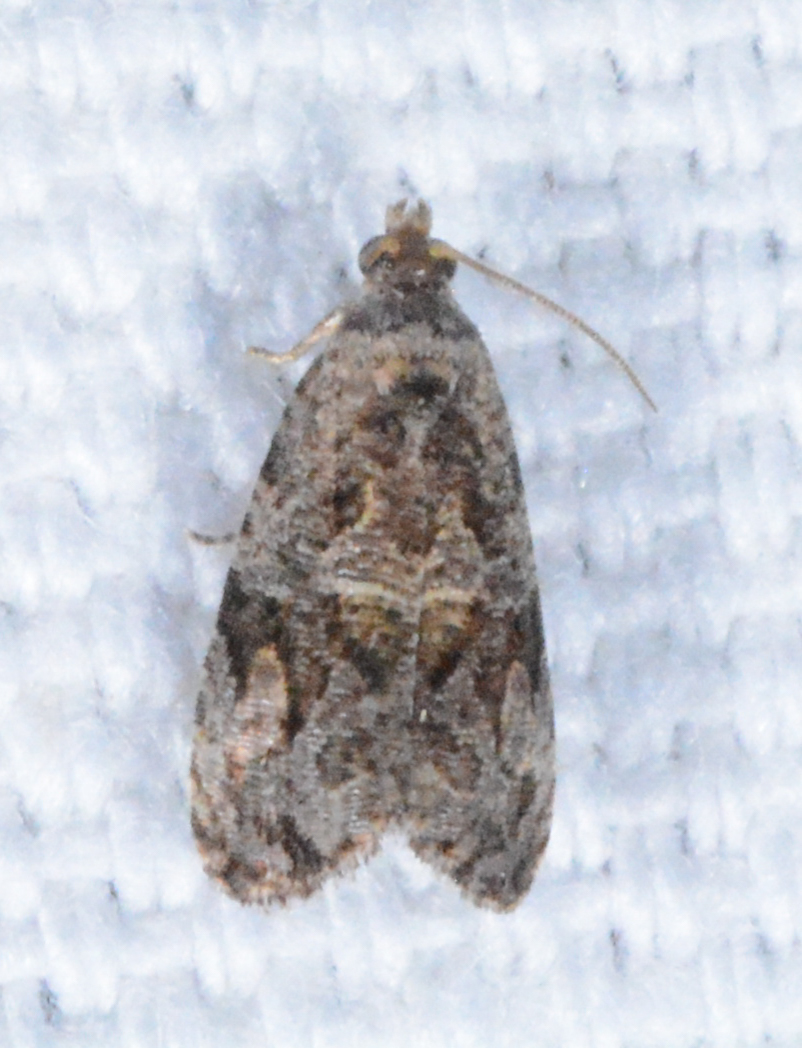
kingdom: Animalia
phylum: Arthropoda
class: Insecta
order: Lepidoptera
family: Tortricidae
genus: Endothenia
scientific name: Endothenia hebesana
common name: Verbena bud moth
